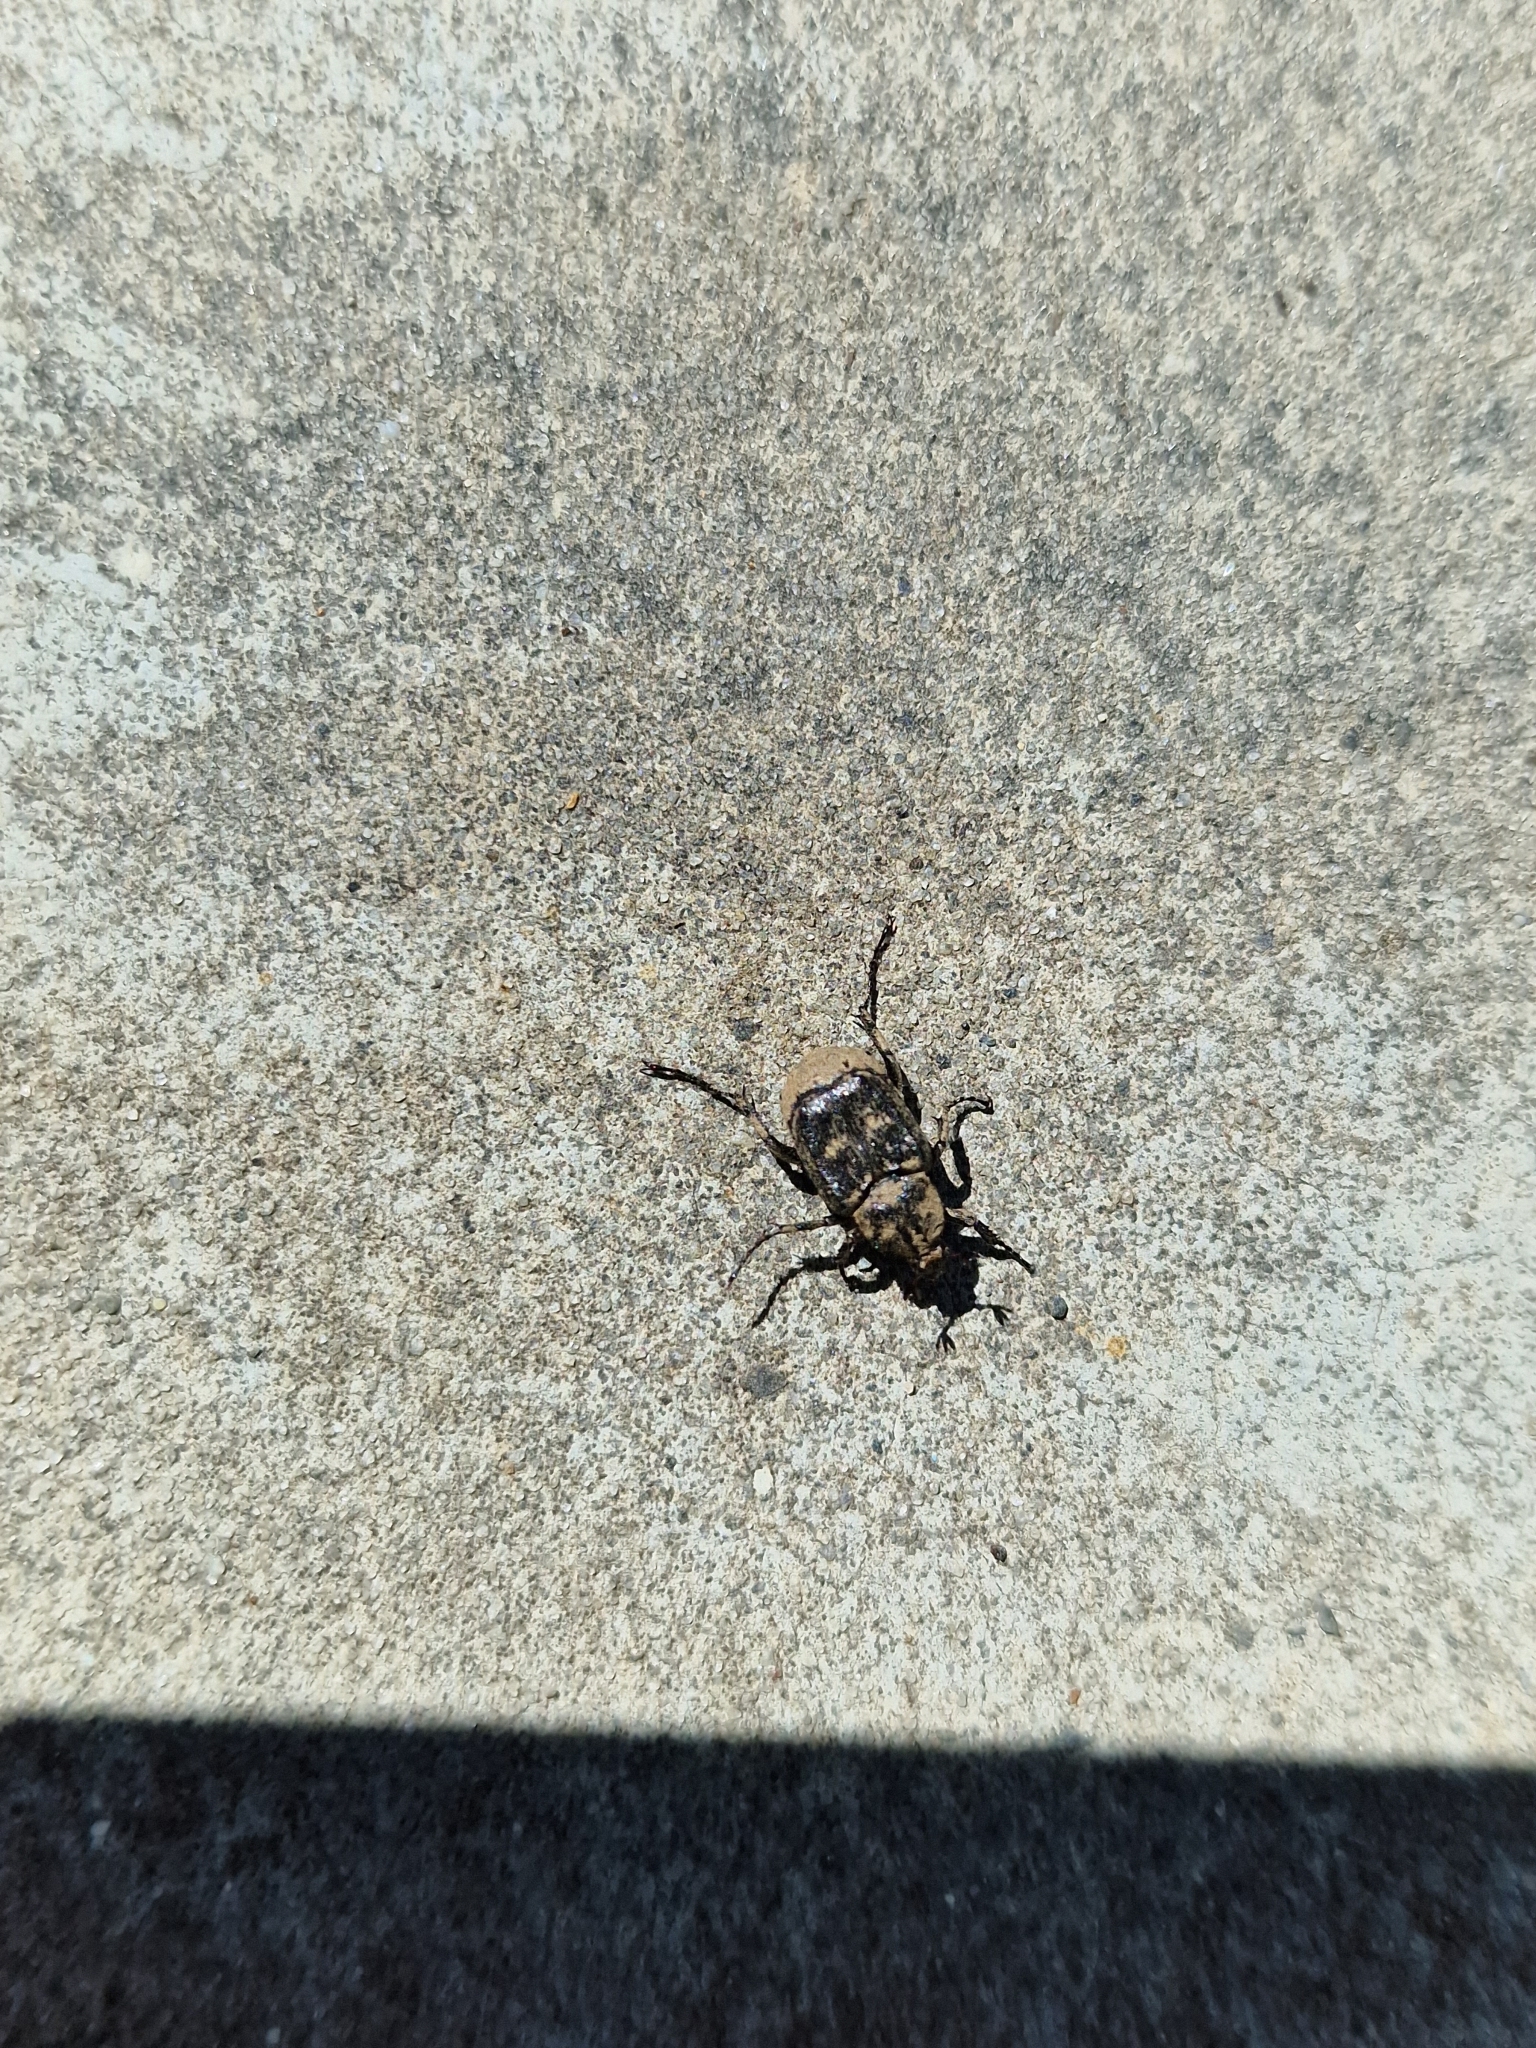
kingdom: Animalia
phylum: Arthropoda
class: Insecta
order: Coleoptera
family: Scarabaeidae
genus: Valgus
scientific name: Valgus hemipterus
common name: Bug flower chafer
